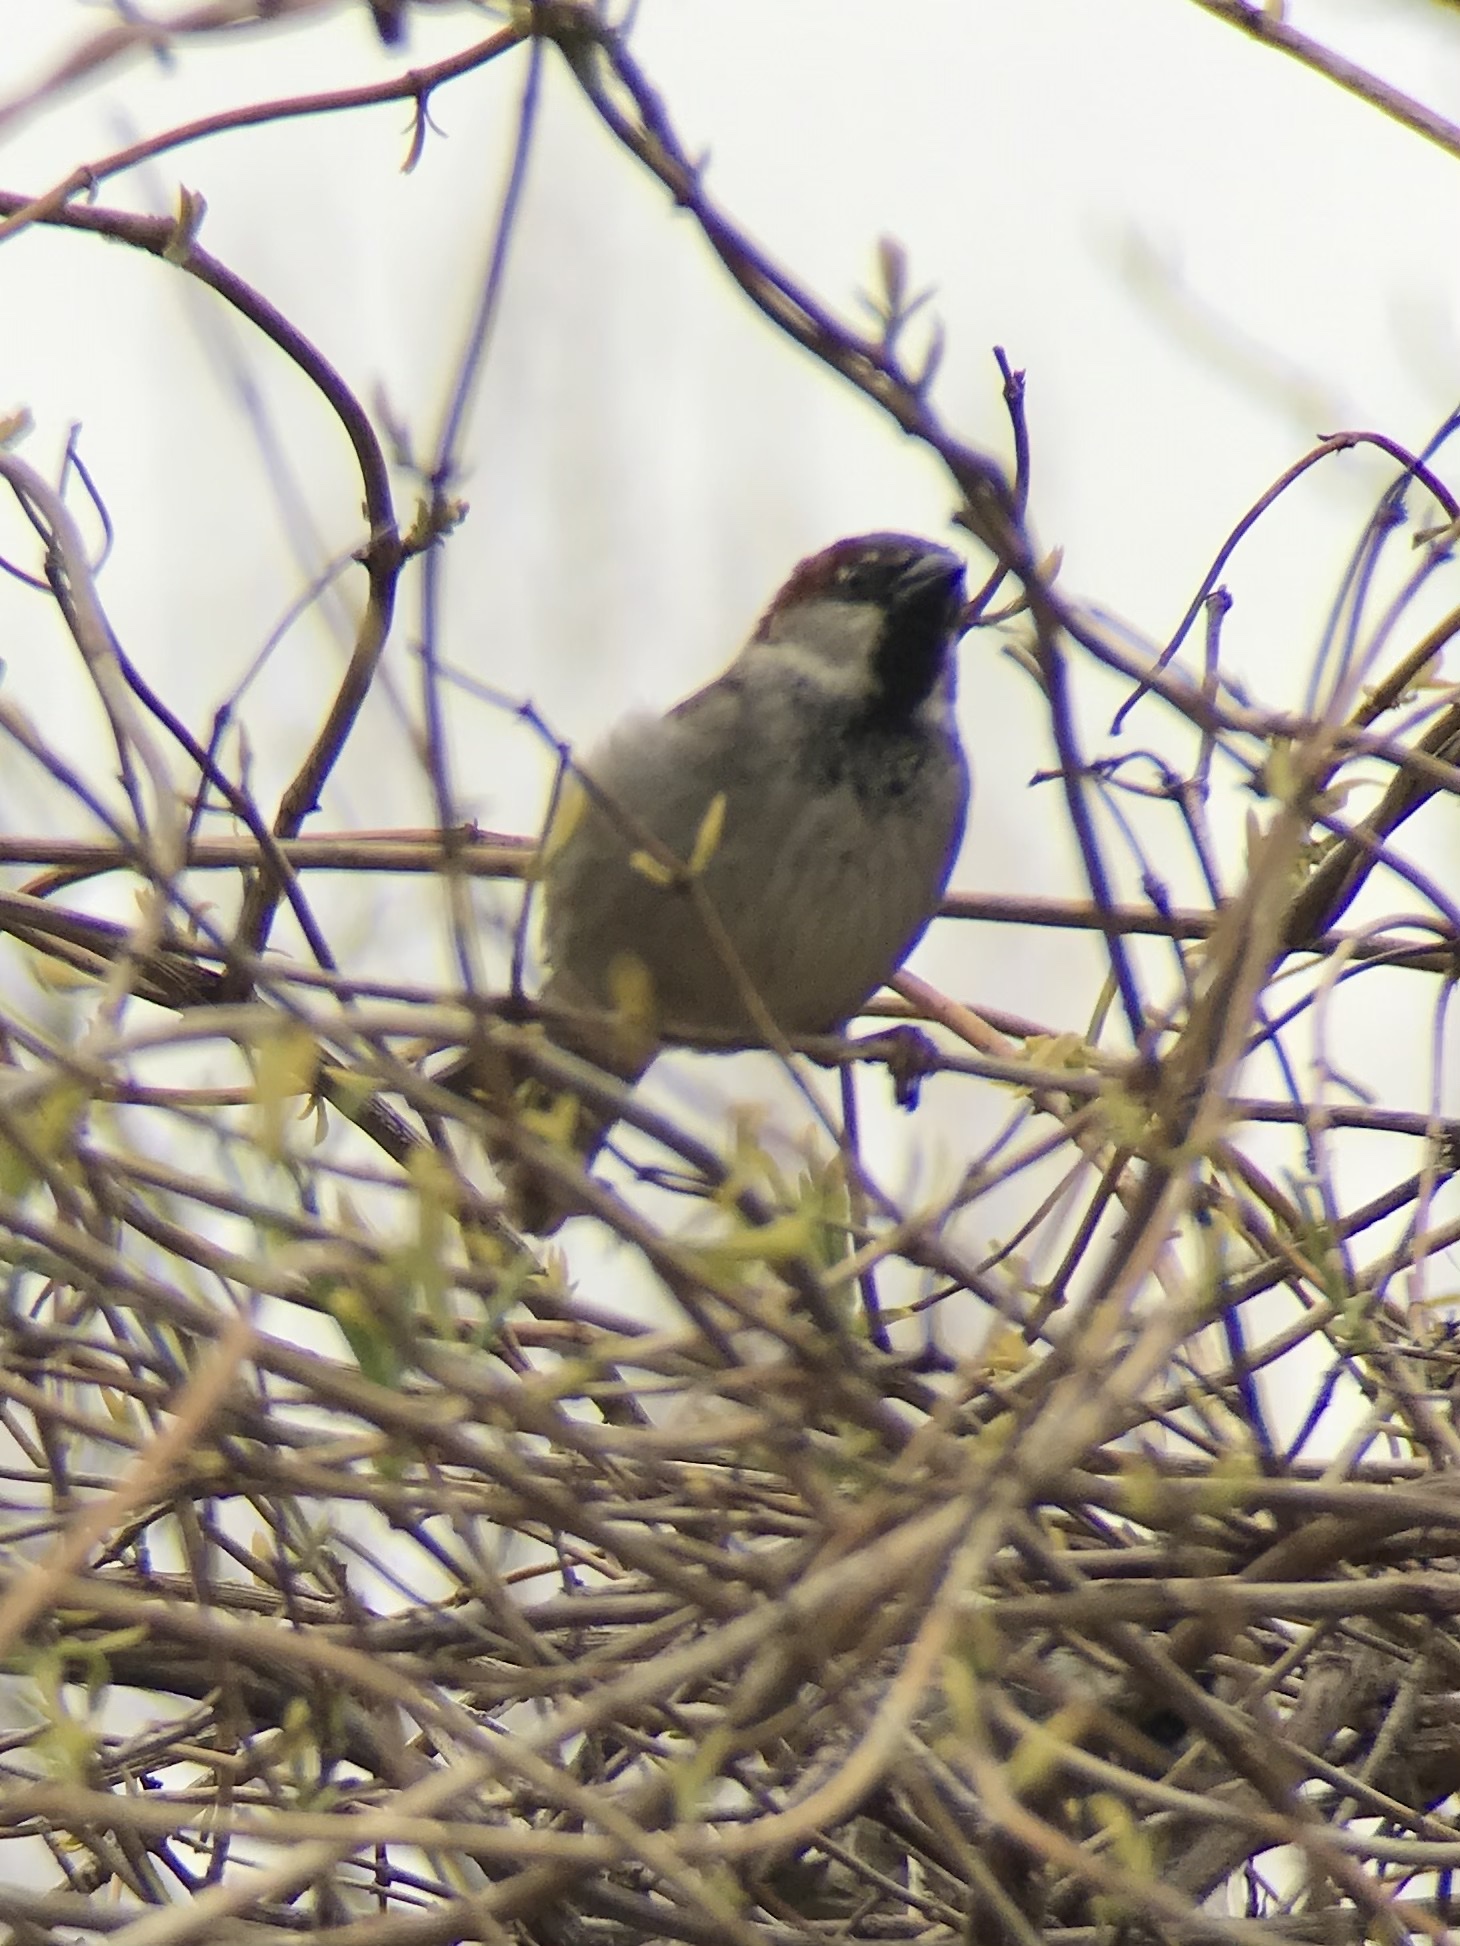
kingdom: Animalia
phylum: Chordata
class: Aves
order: Passeriformes
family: Passeridae
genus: Passer
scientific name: Passer domesticus
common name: House sparrow
